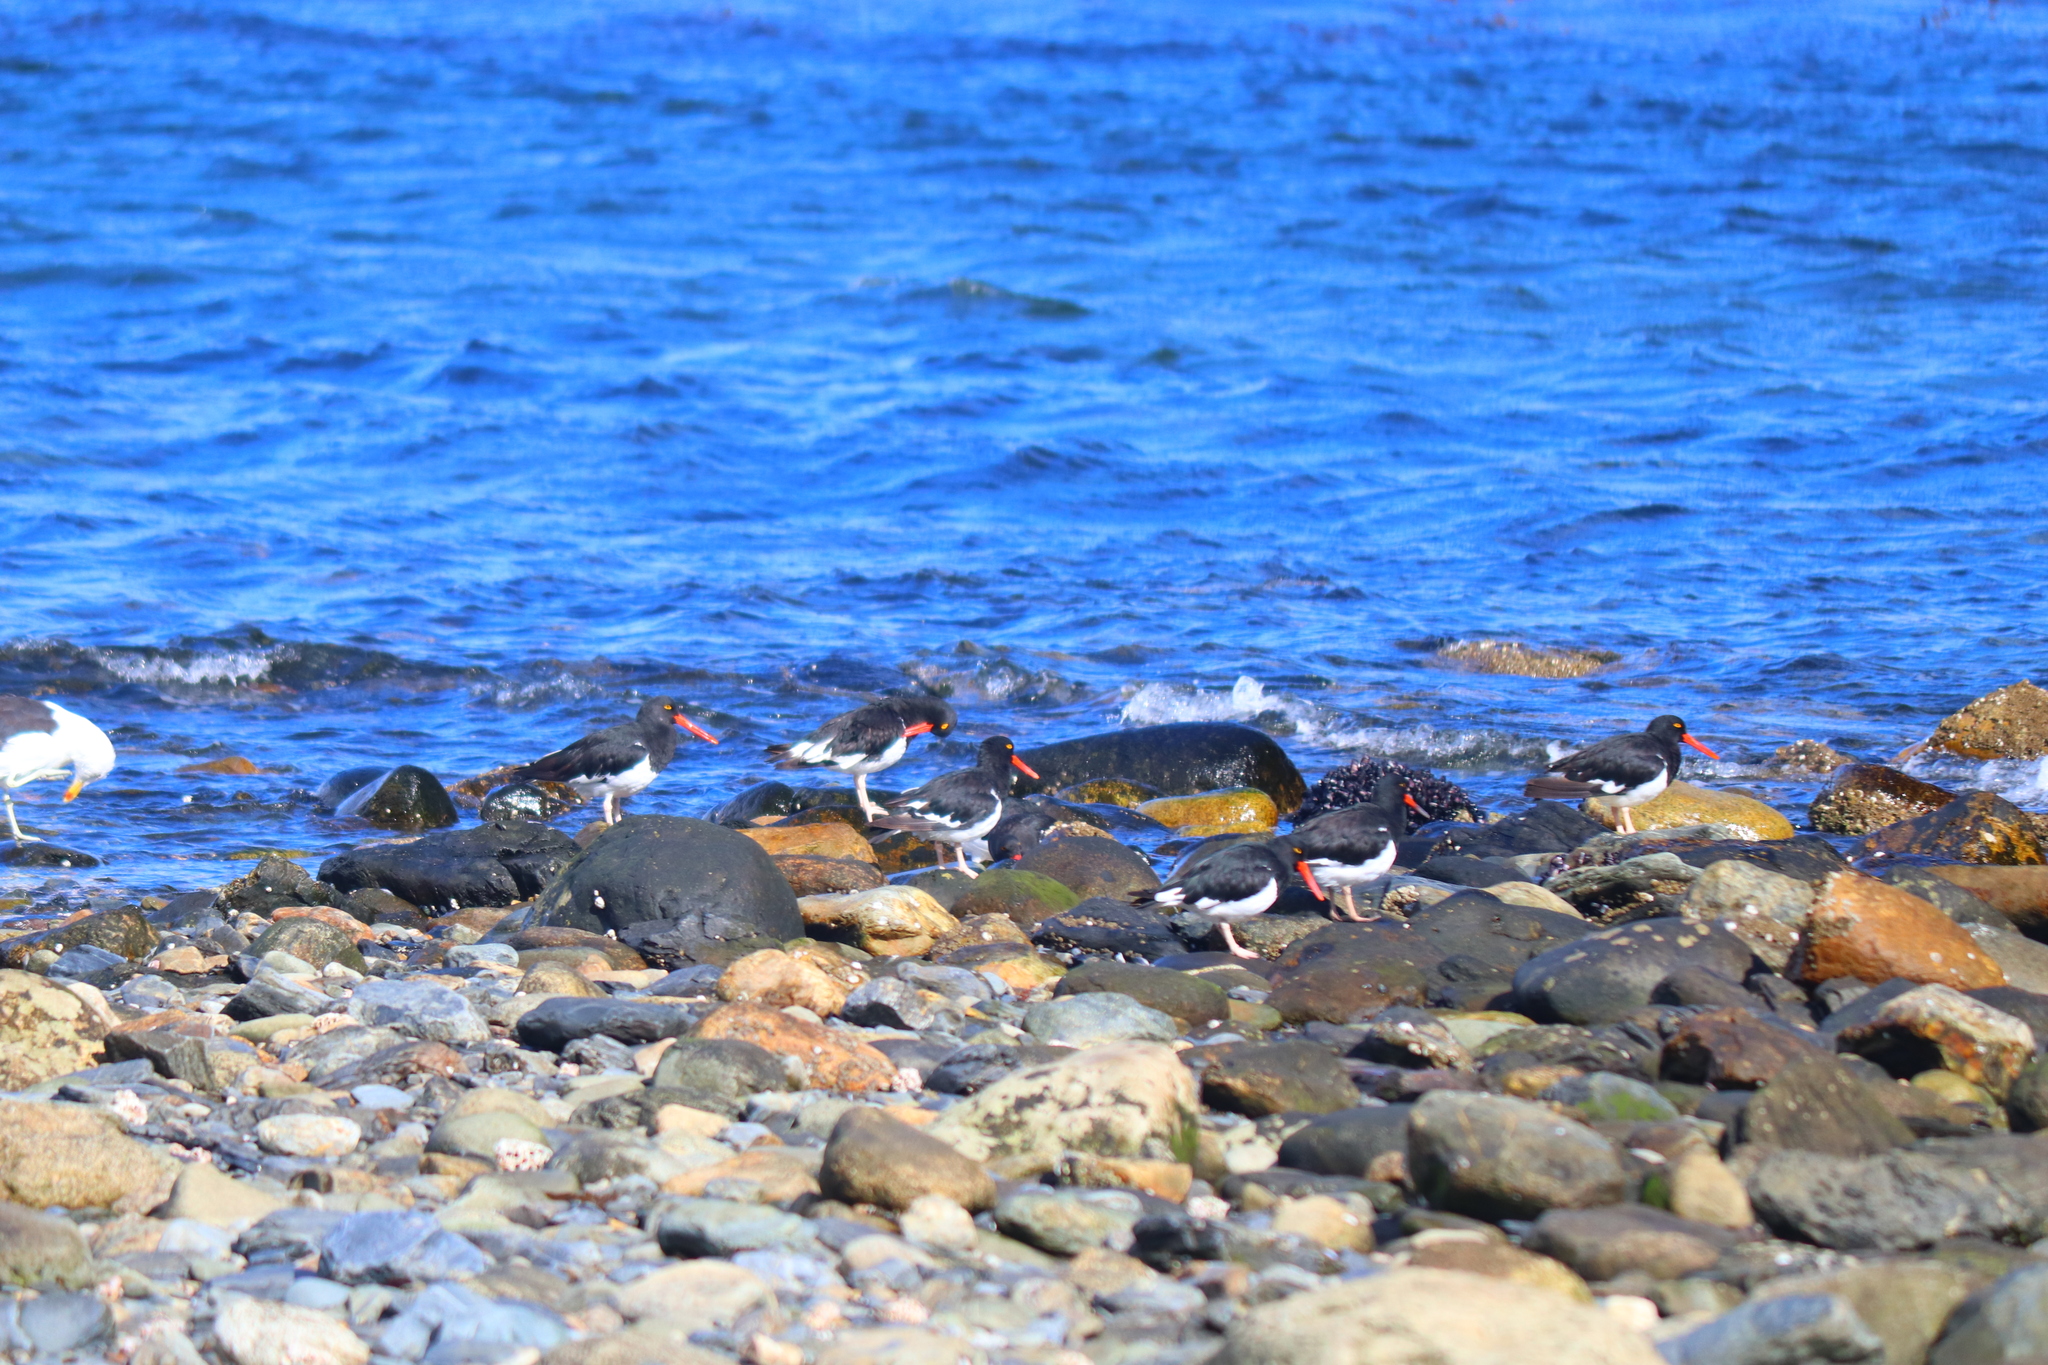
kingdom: Animalia
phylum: Chordata
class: Aves
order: Charadriiformes
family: Haematopodidae
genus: Haematopus
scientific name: Haematopus leucopodus
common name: Magellanic oystercatcher
